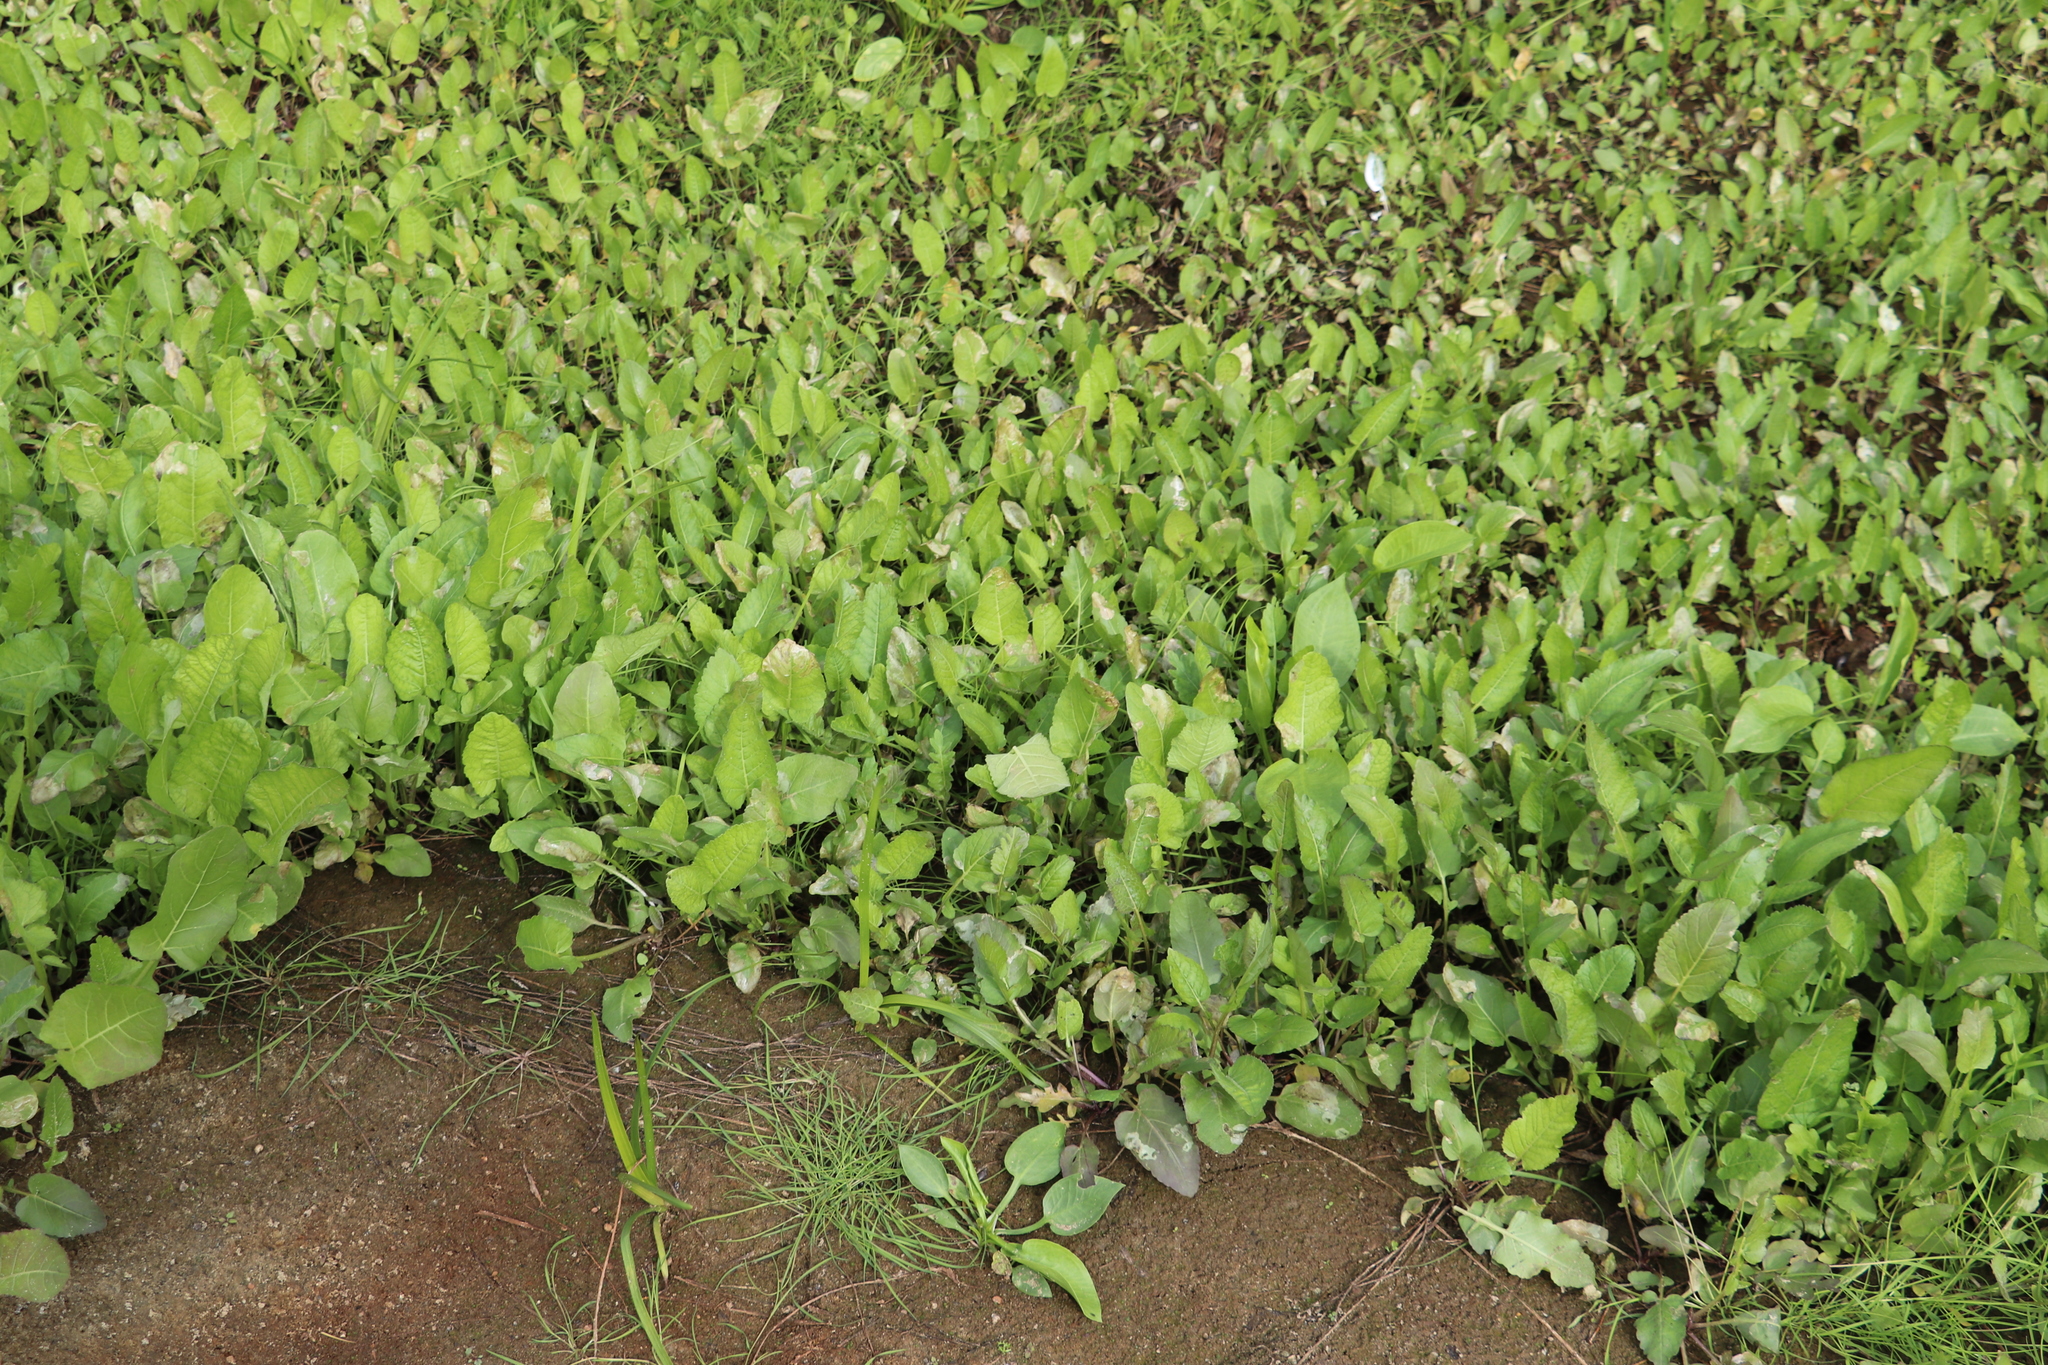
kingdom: Plantae
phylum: Tracheophyta
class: Magnoliopsida
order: Brassicales
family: Brassicaceae
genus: Rorippa
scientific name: Rorippa amphibia
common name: Great yellow-cress
